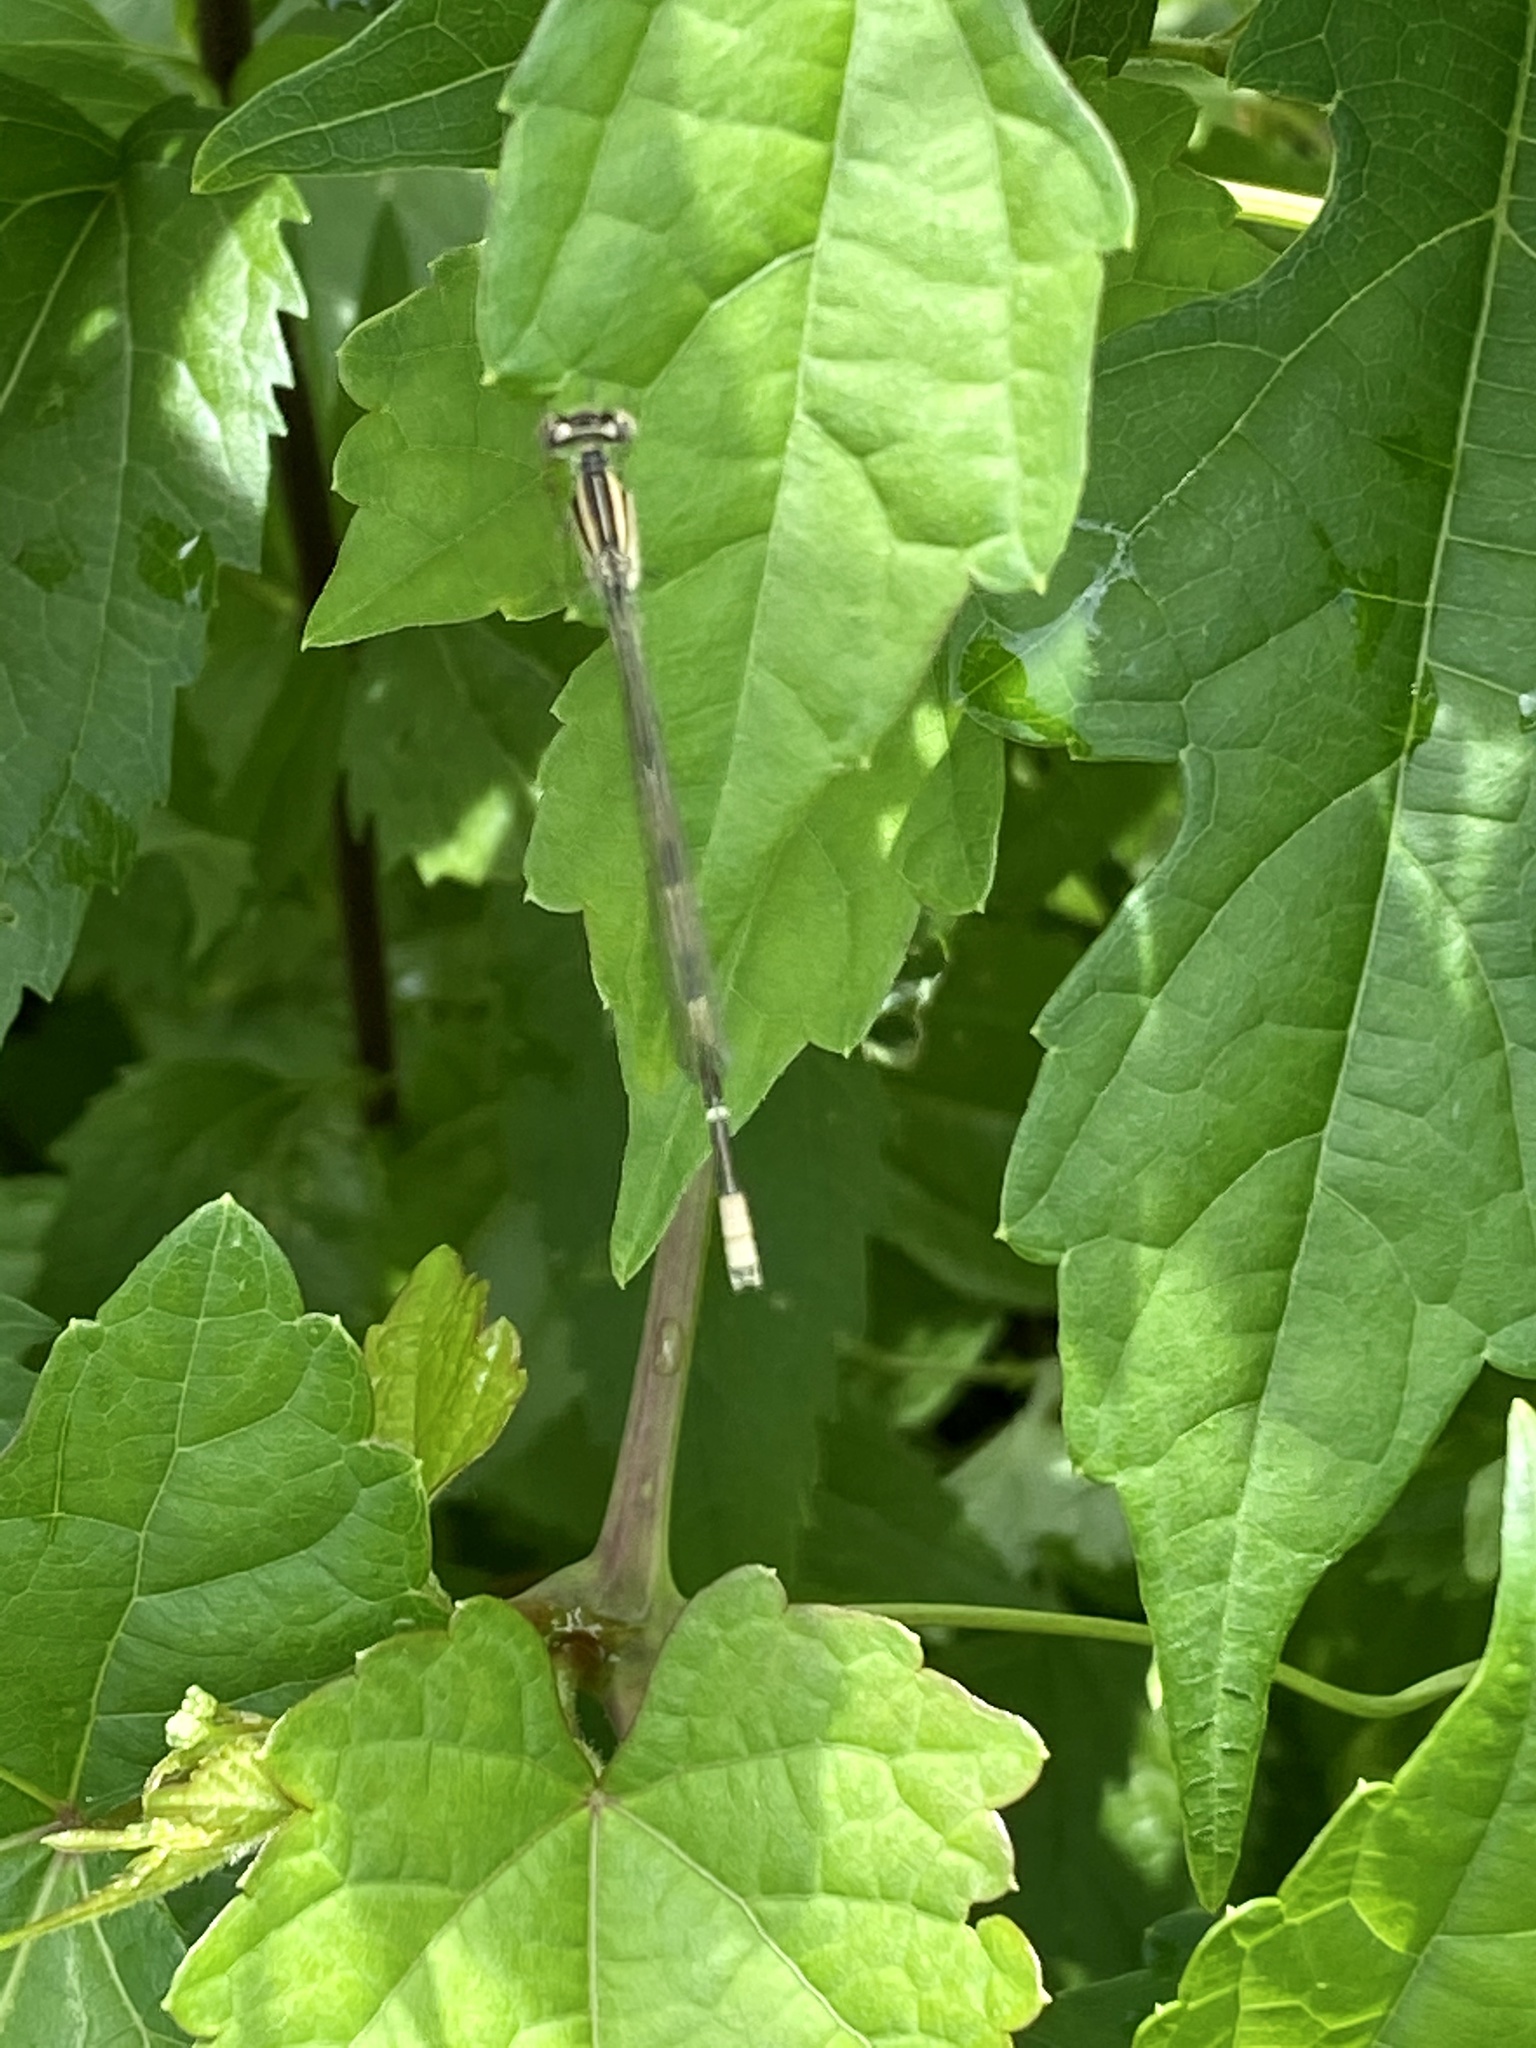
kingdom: Animalia
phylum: Arthropoda
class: Insecta
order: Odonata
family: Coenagrionidae
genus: Enallagma
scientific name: Enallagma durum
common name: Big bluet
